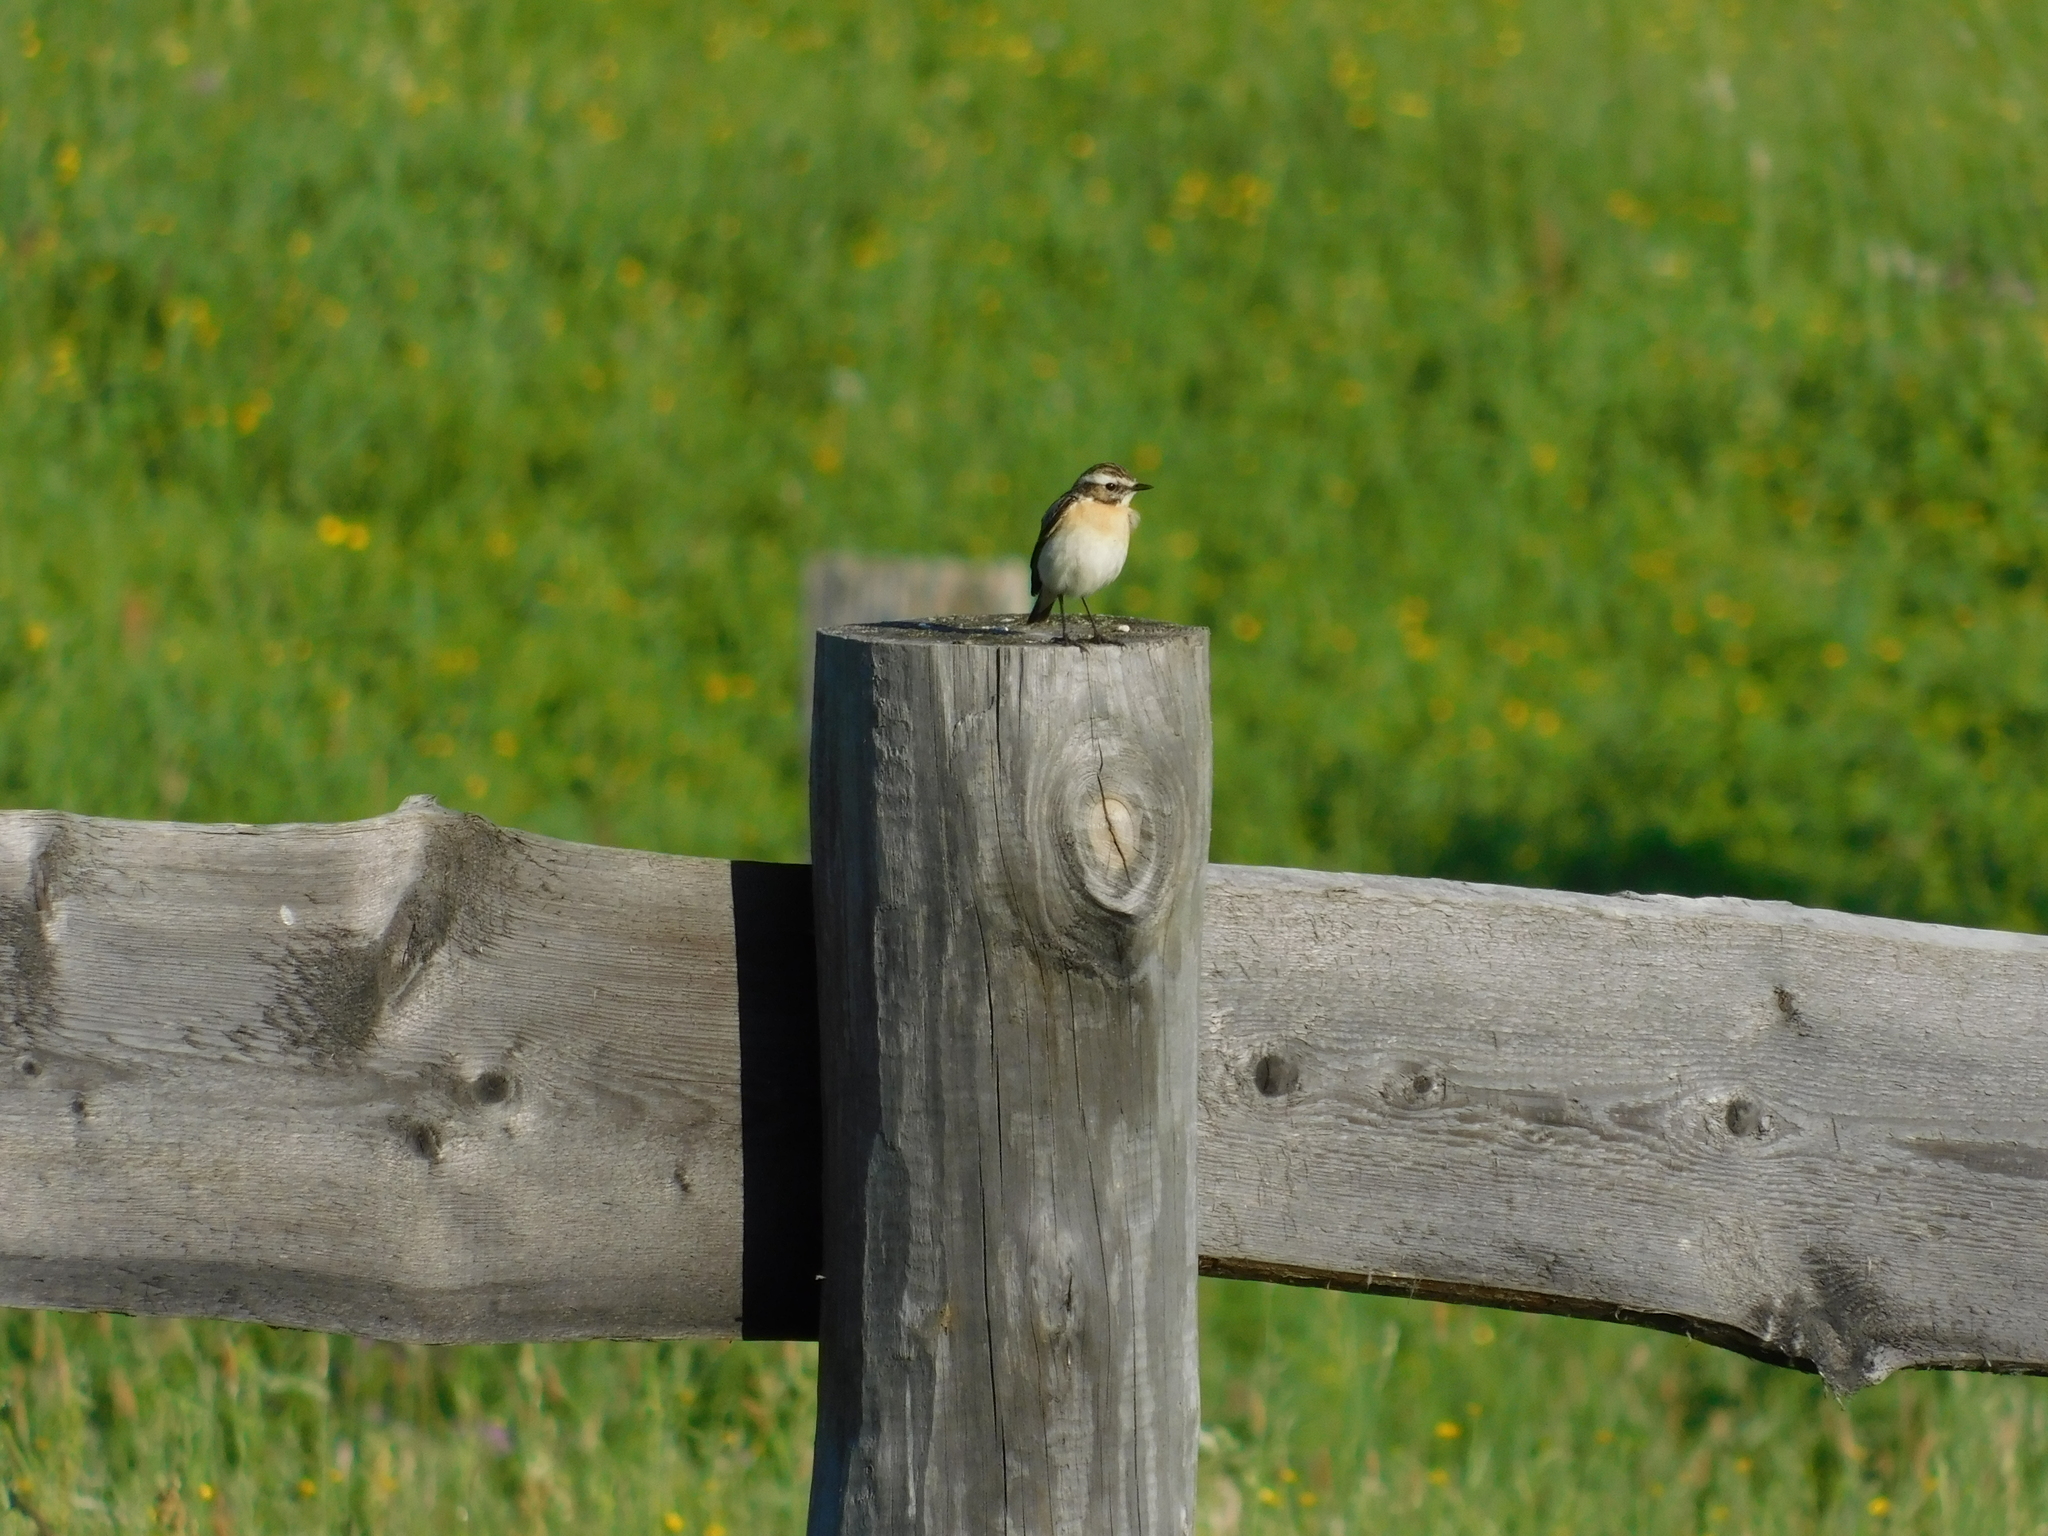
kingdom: Animalia
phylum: Chordata
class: Aves
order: Passeriformes
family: Muscicapidae
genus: Saxicola
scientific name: Saxicola rubetra
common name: Whinchat
